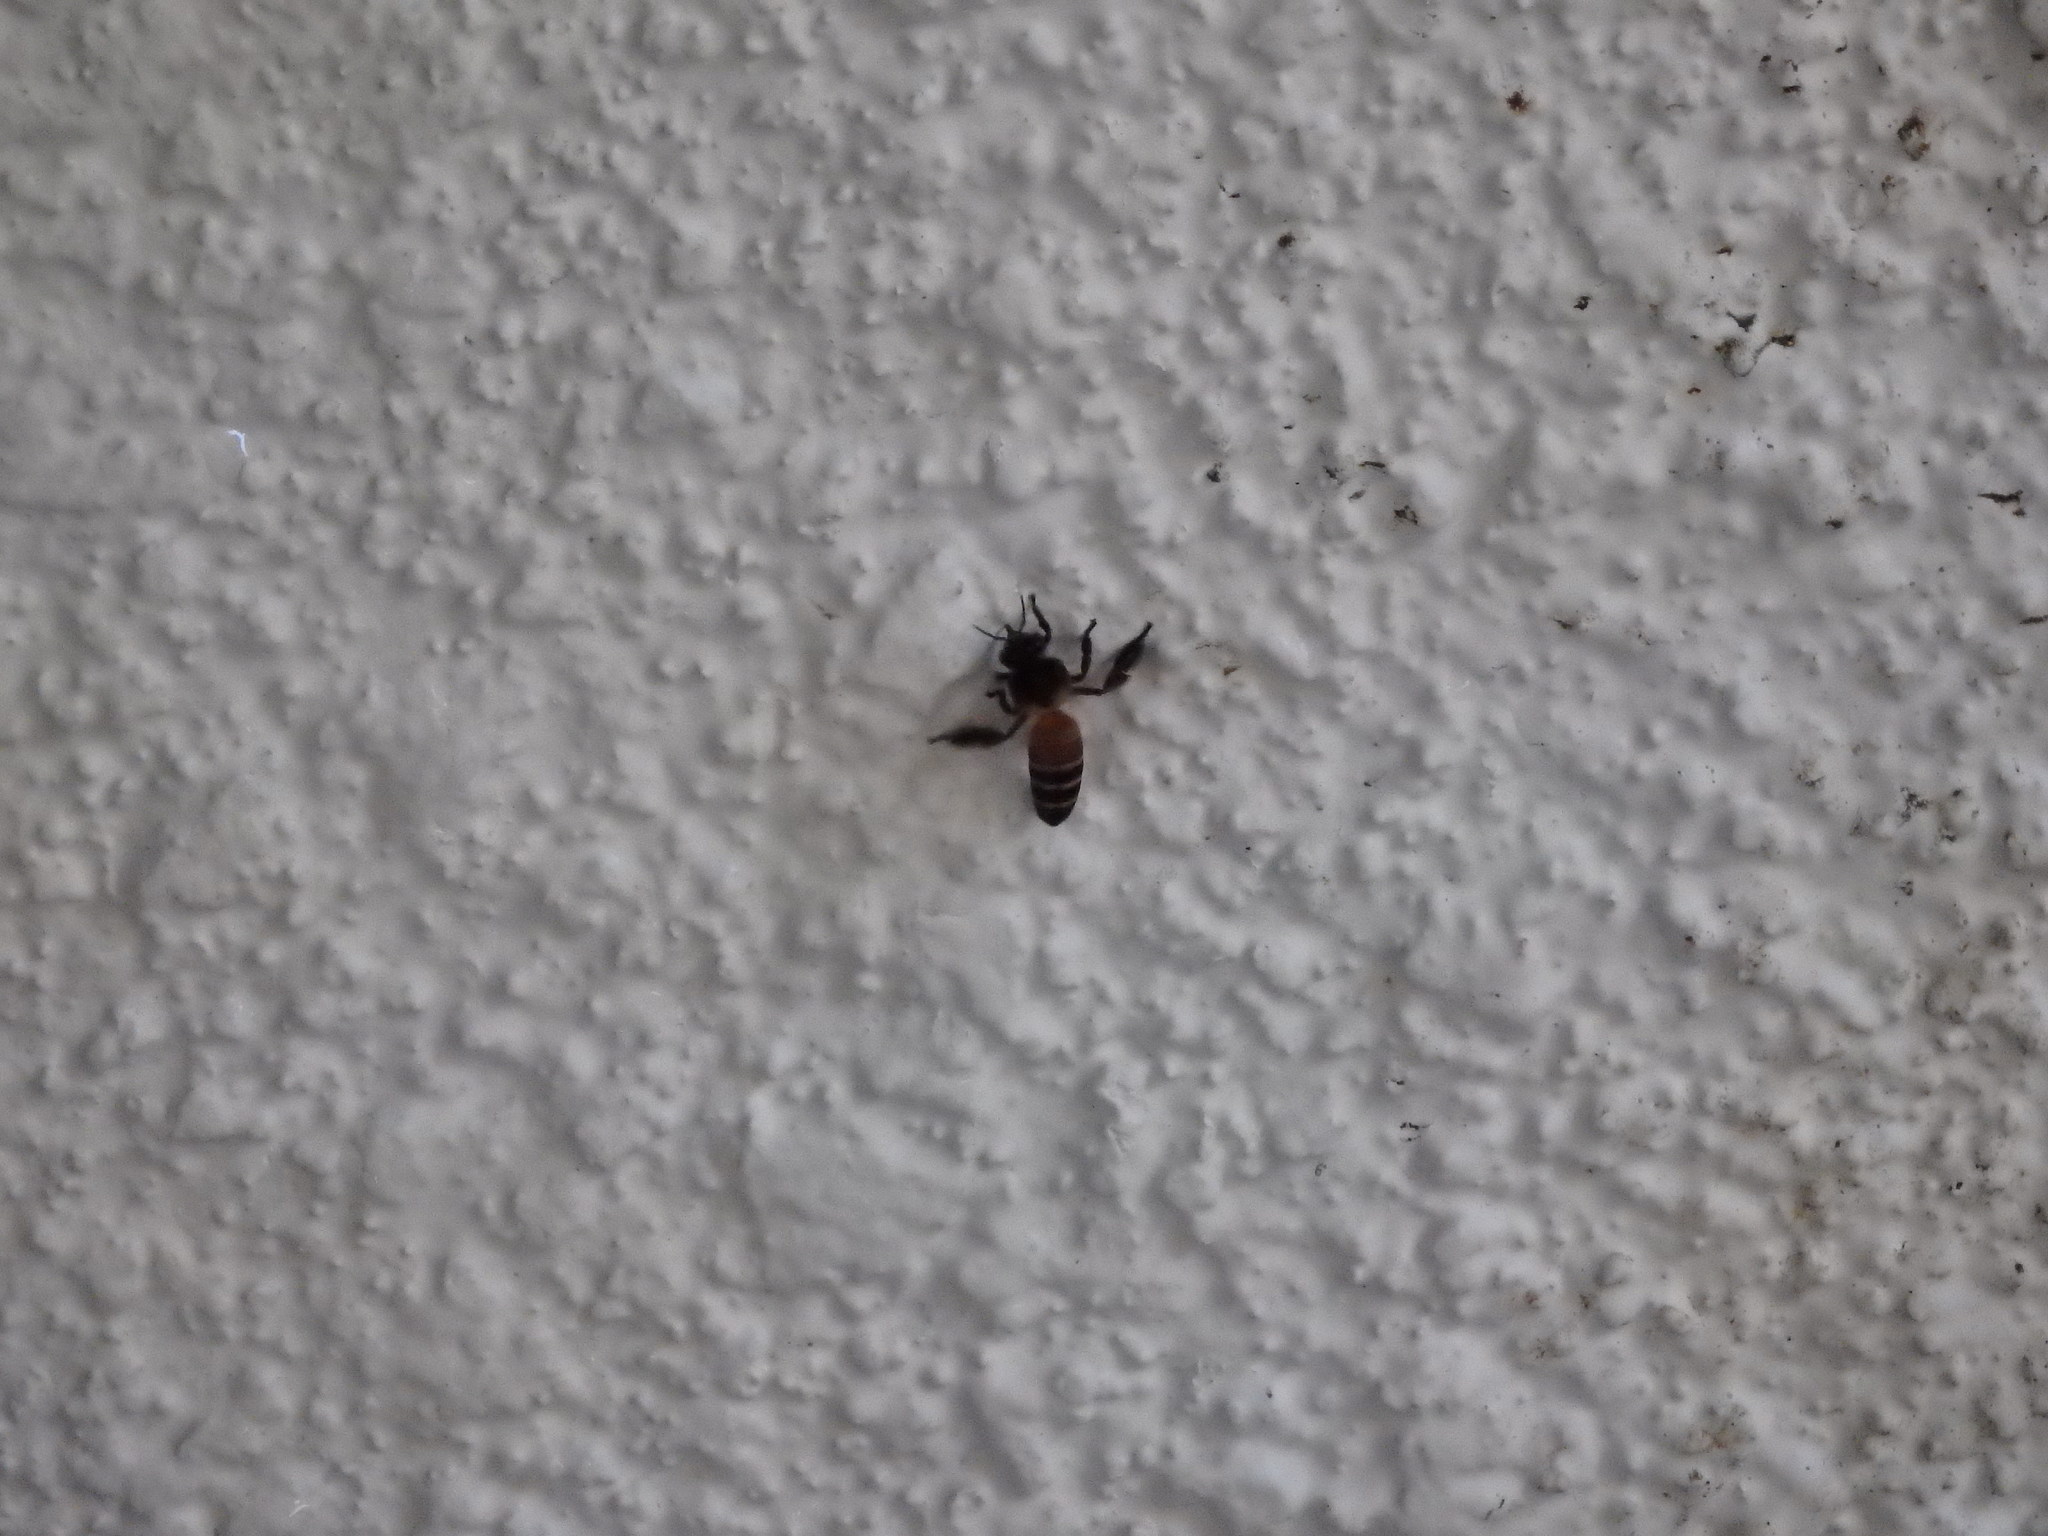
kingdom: Animalia
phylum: Arthropoda
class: Insecta
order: Hymenoptera
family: Apidae
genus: Apis
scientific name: Apis dorsata
